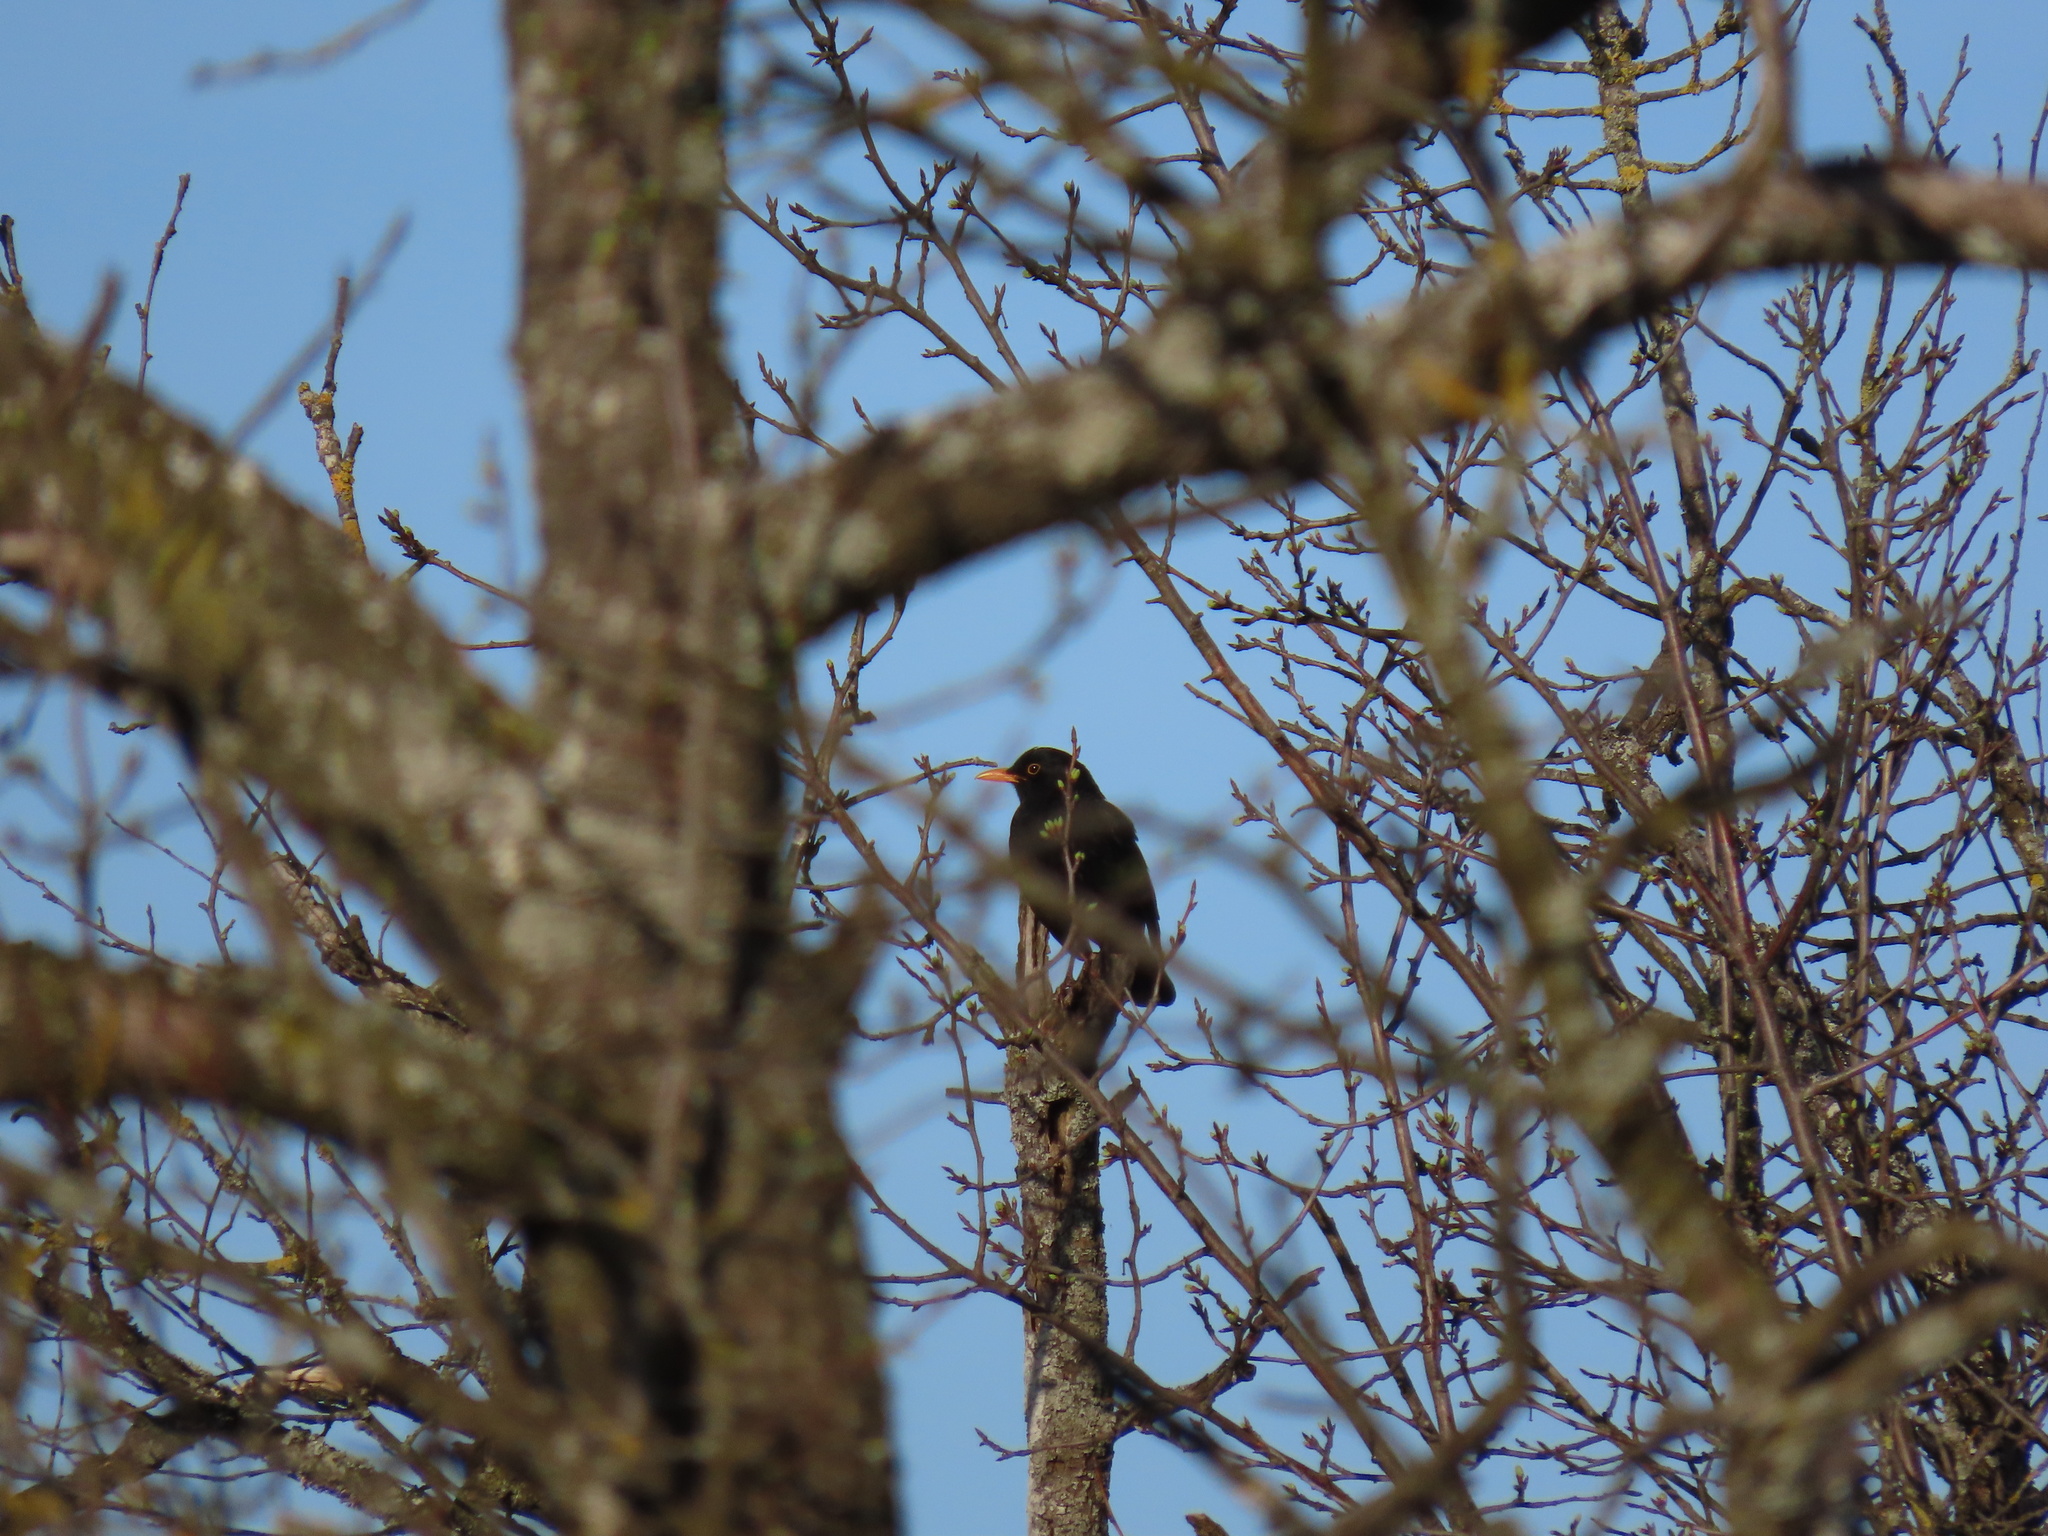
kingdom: Animalia
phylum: Chordata
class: Aves
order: Passeriformes
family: Turdidae
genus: Turdus
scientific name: Turdus merula
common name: Common blackbird
